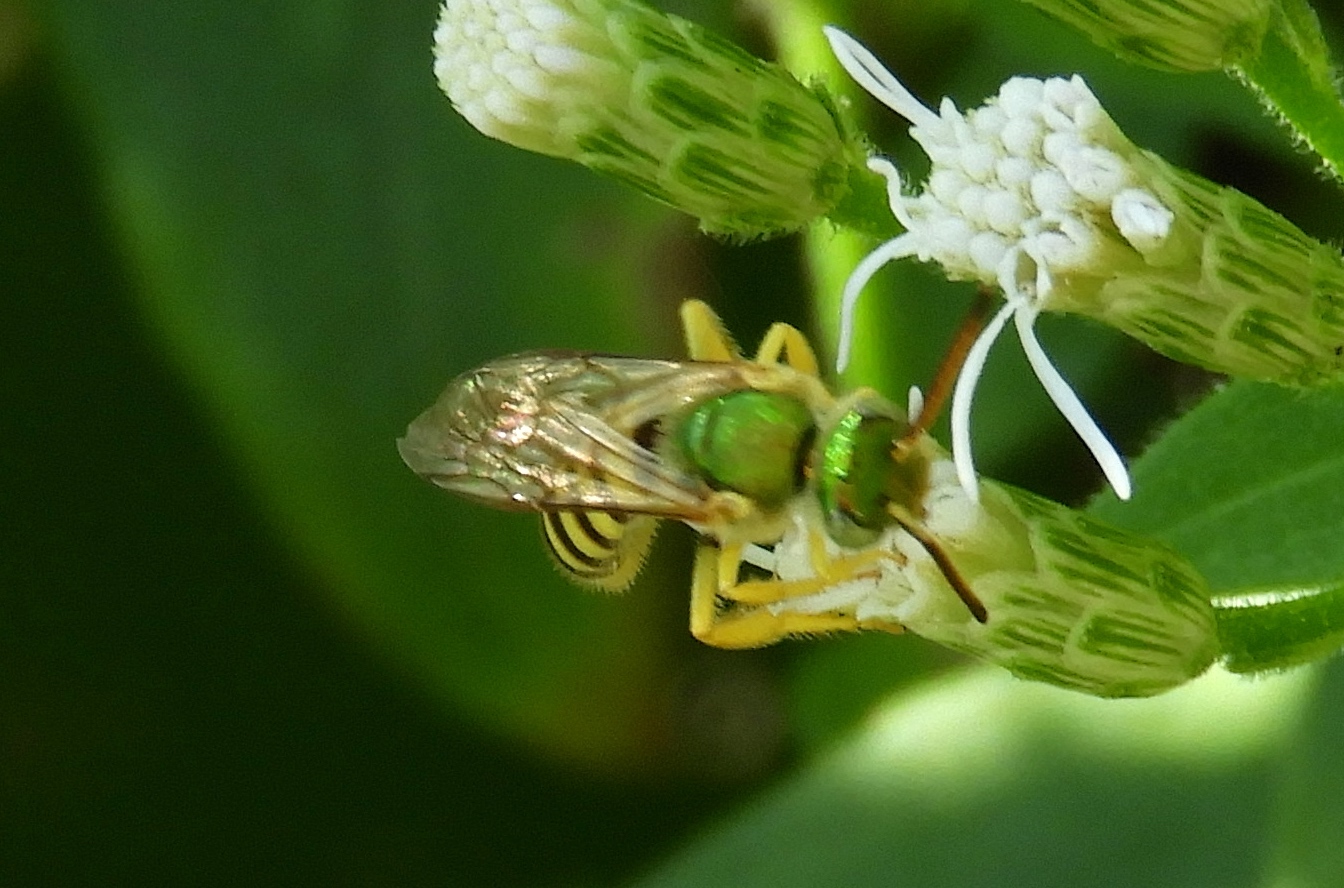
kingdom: Animalia
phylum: Arthropoda
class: Insecta
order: Hymenoptera
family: Halictidae
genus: Agapostemon
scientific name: Agapostemon
